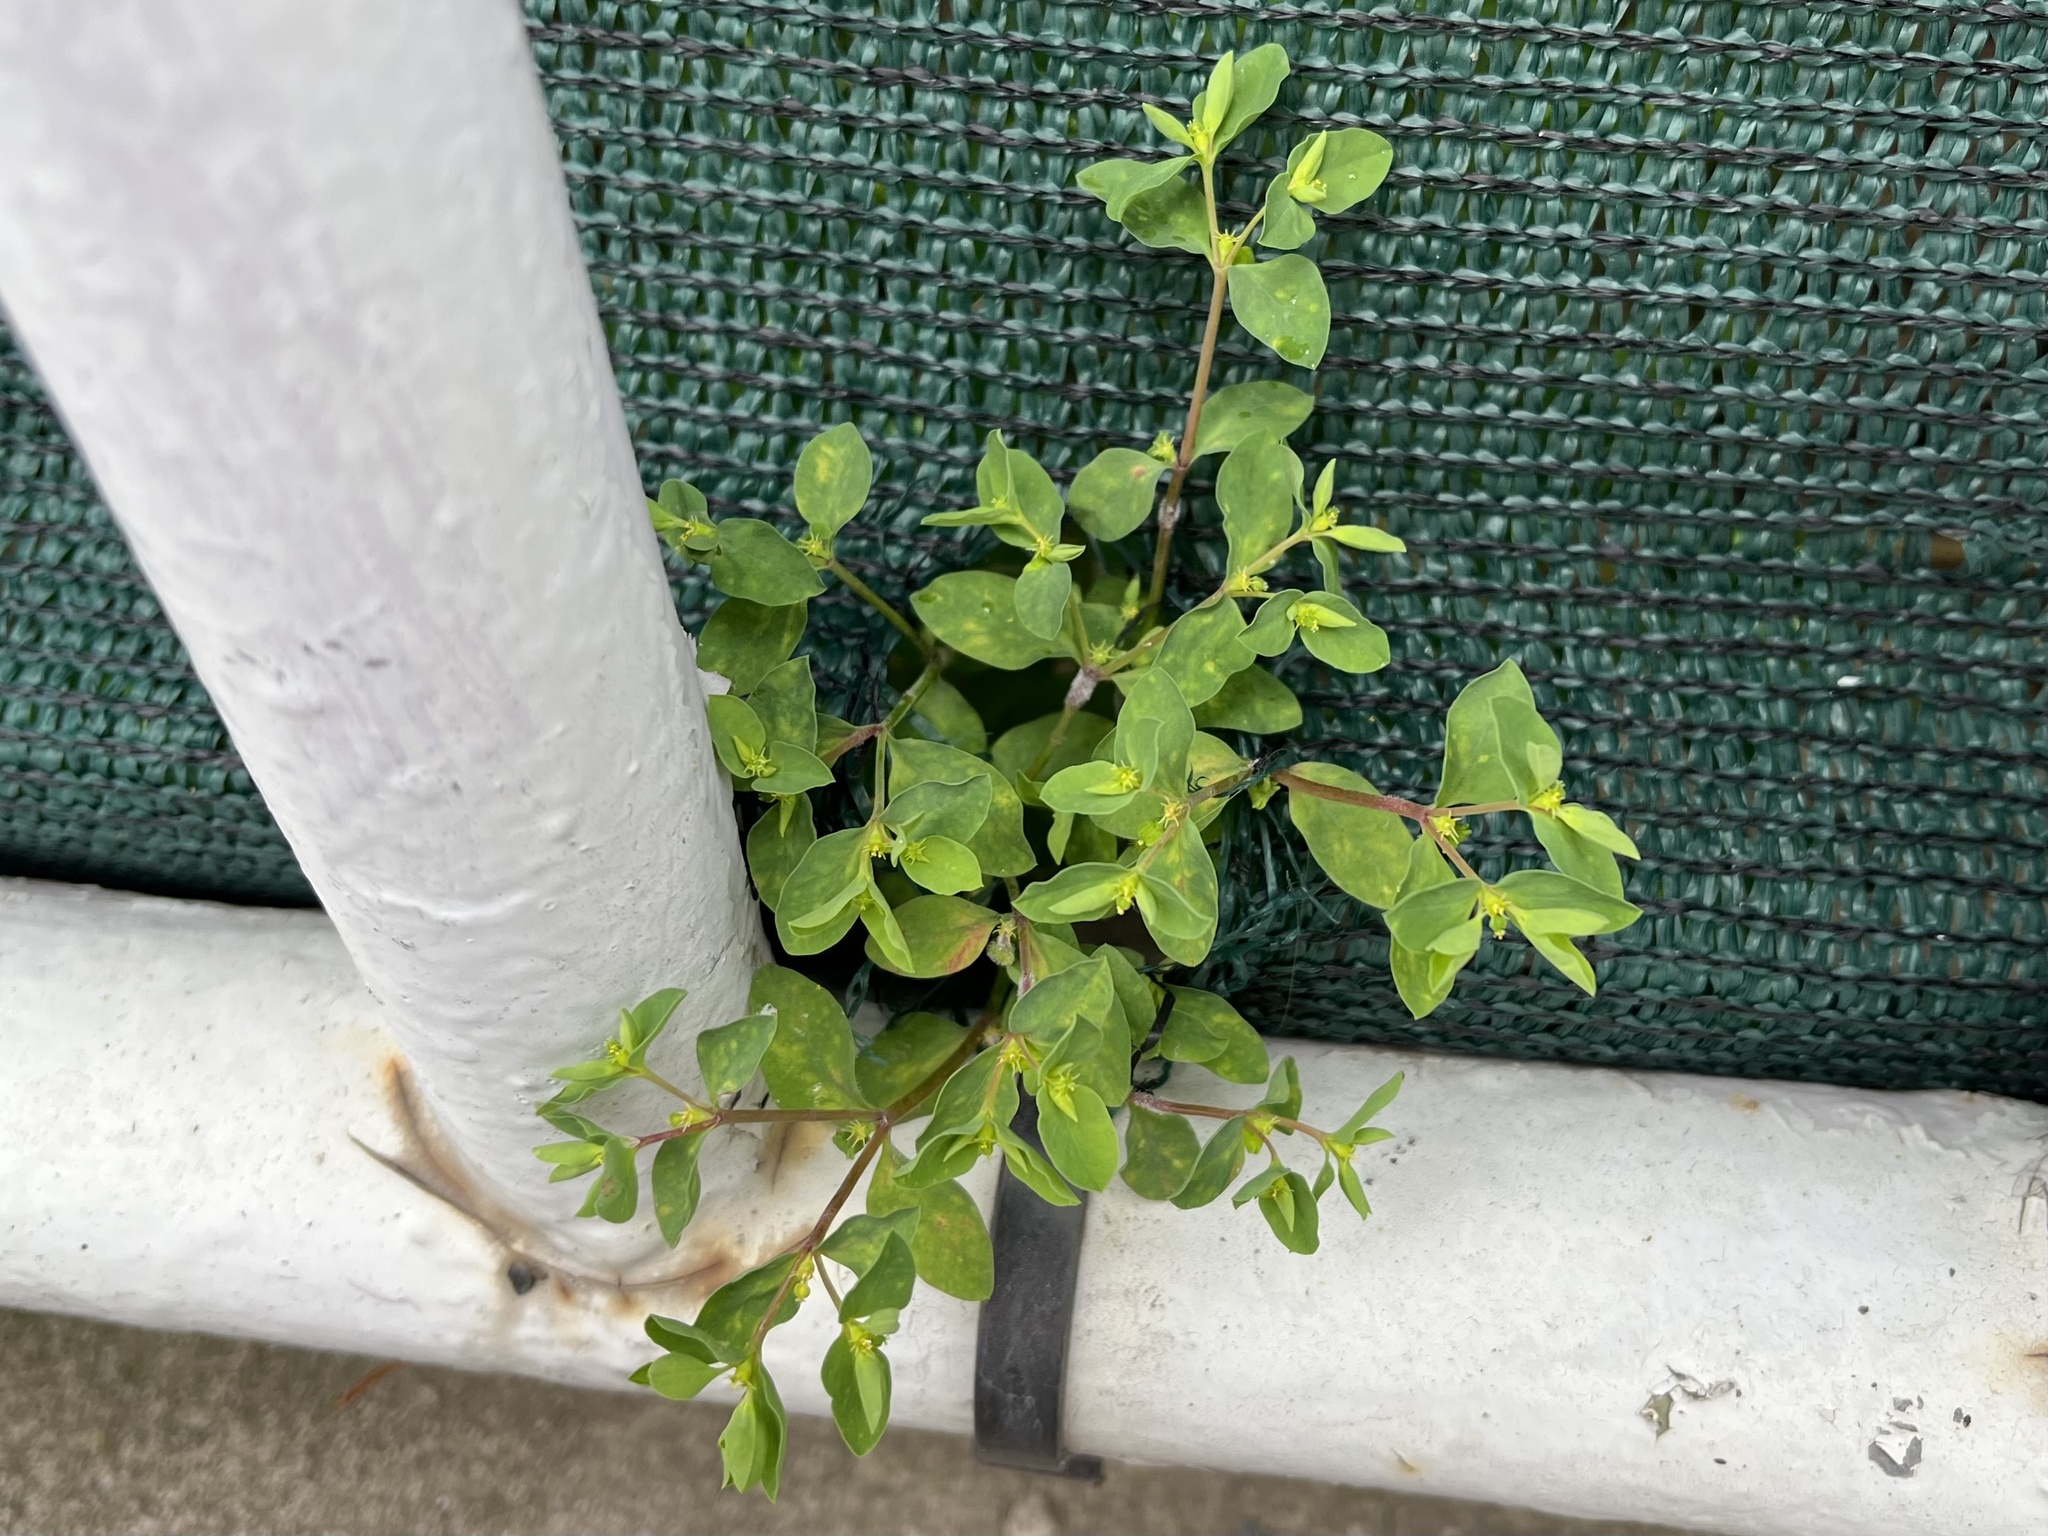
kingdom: Plantae
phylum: Tracheophyta
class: Magnoliopsida
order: Malpighiales
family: Euphorbiaceae
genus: Euphorbia
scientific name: Euphorbia peplus
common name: Petty spurge
